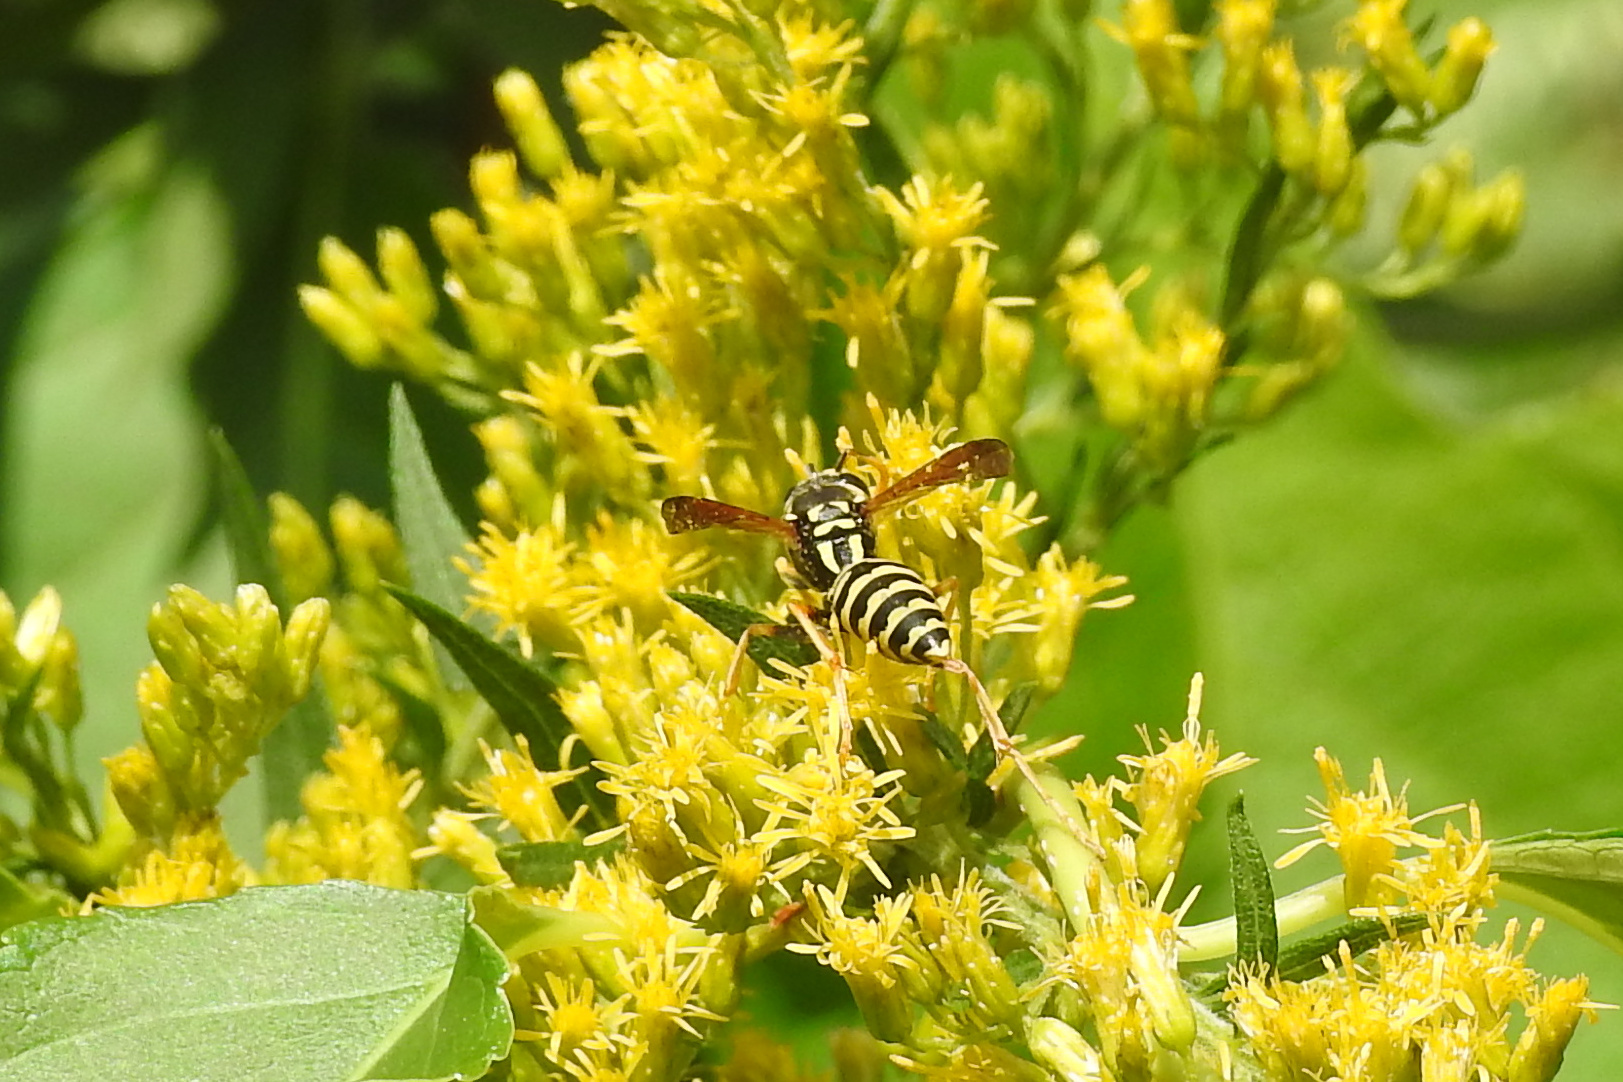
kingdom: Animalia
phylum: Arthropoda
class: Insecta
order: Hymenoptera
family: Eumenidae
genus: Polistes
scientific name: Polistes dominula
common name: Paper wasp
